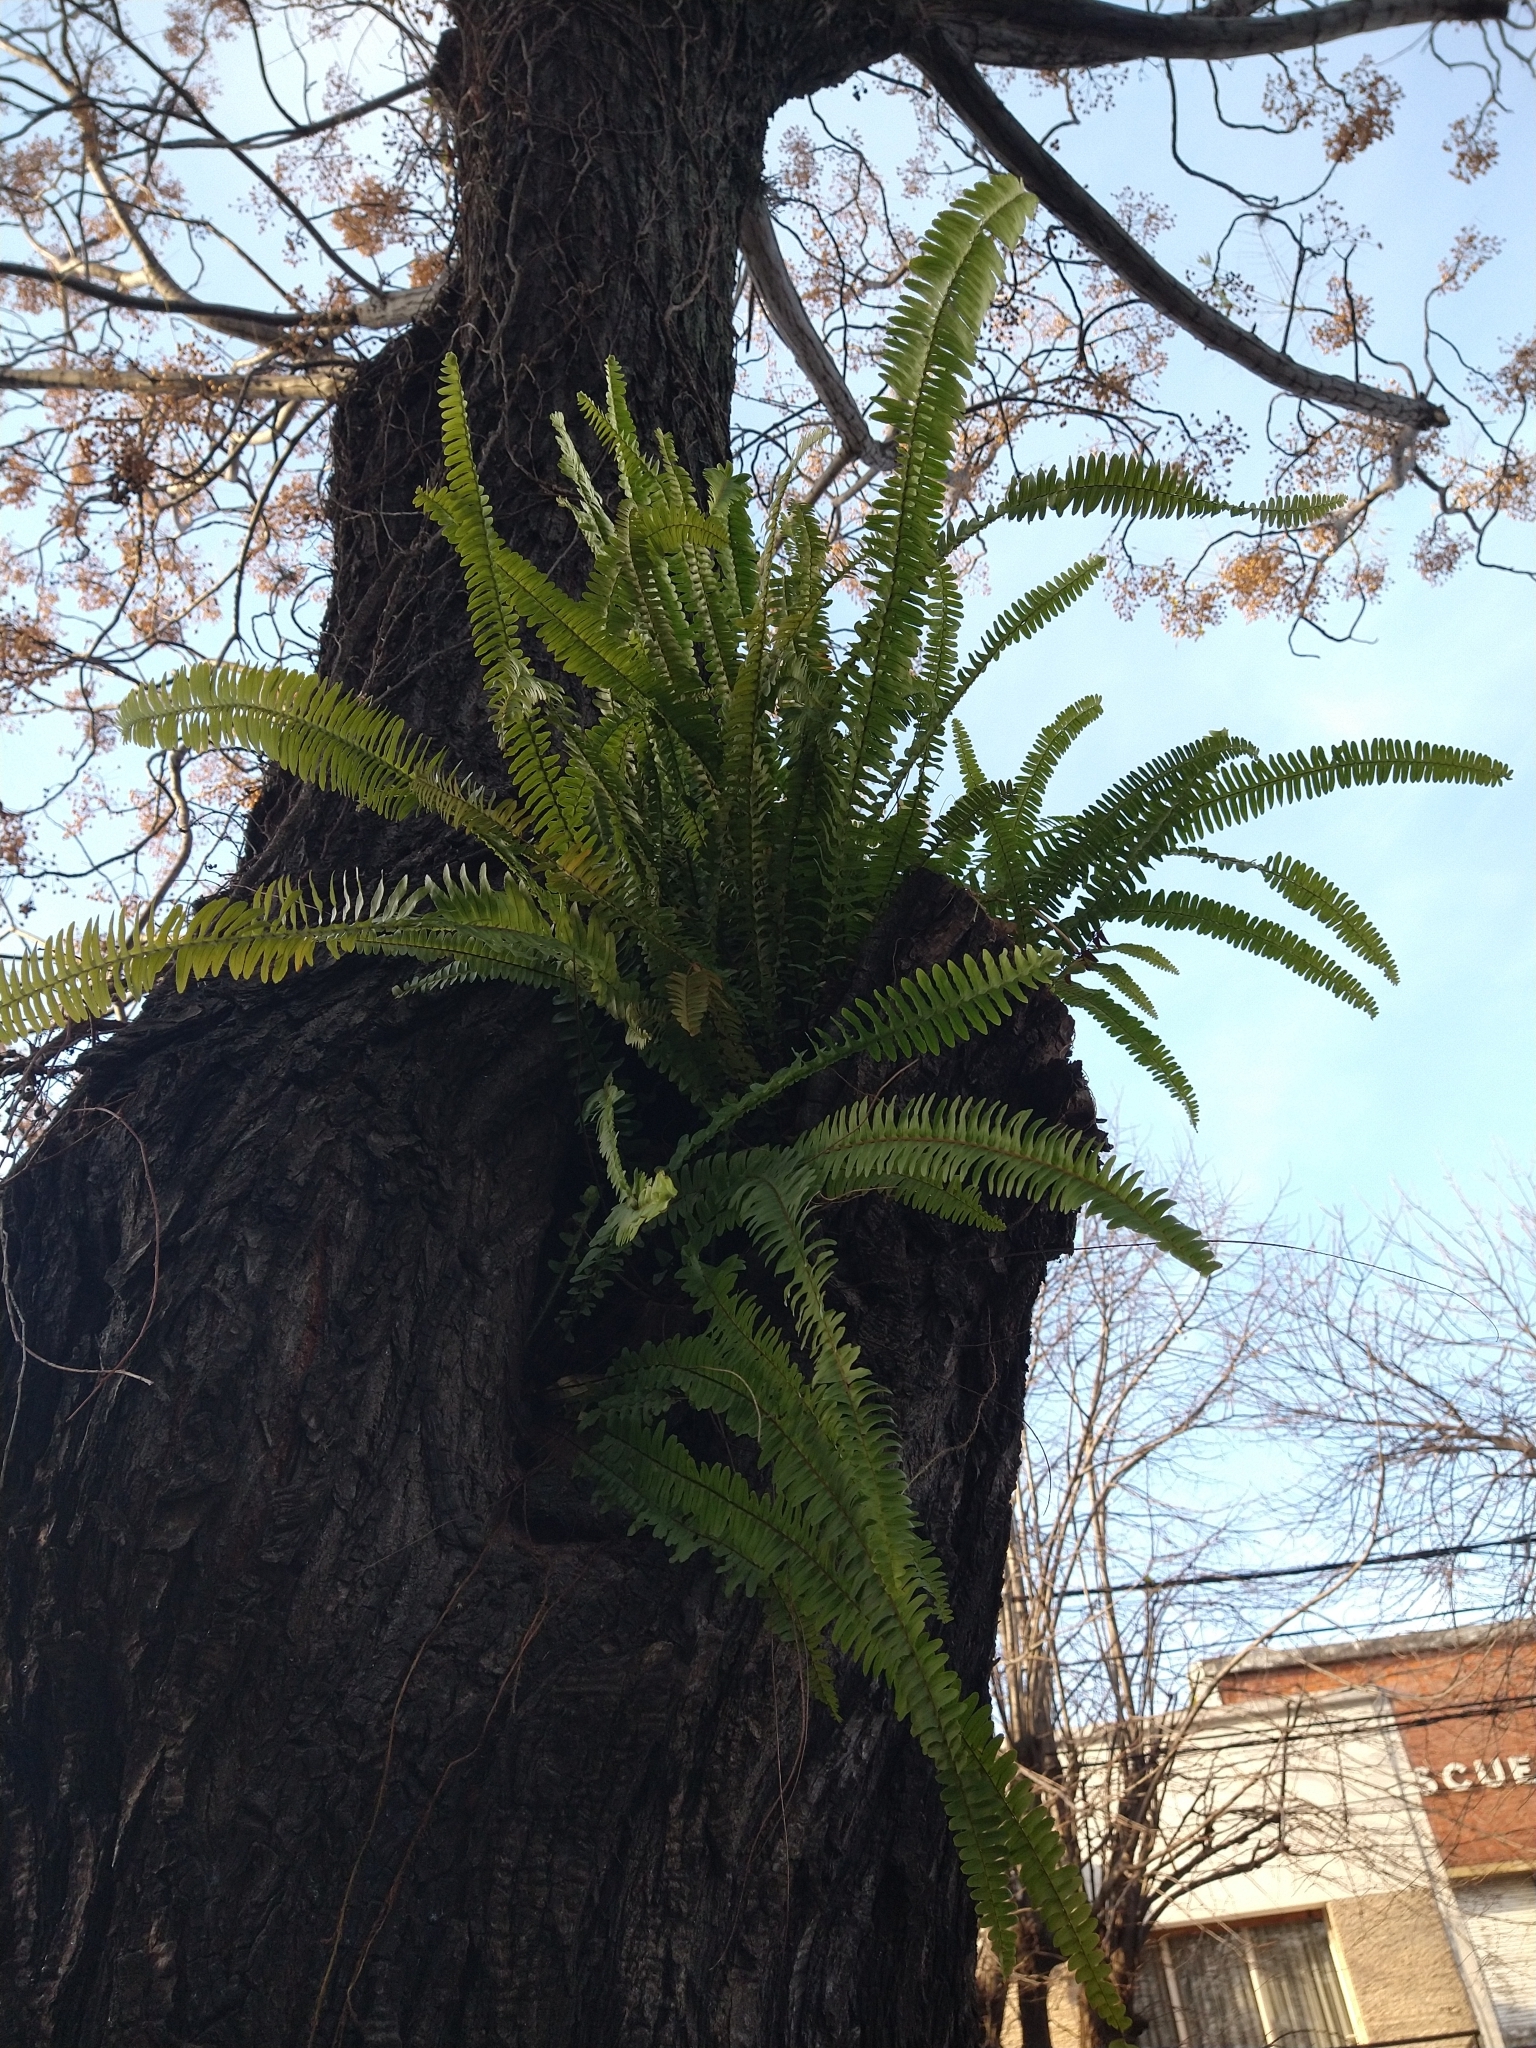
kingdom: Plantae
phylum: Tracheophyta
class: Polypodiopsida
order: Polypodiales
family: Nephrolepidaceae
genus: Nephrolepis
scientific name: Nephrolepis cordifolia
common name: Narrow swordfern
